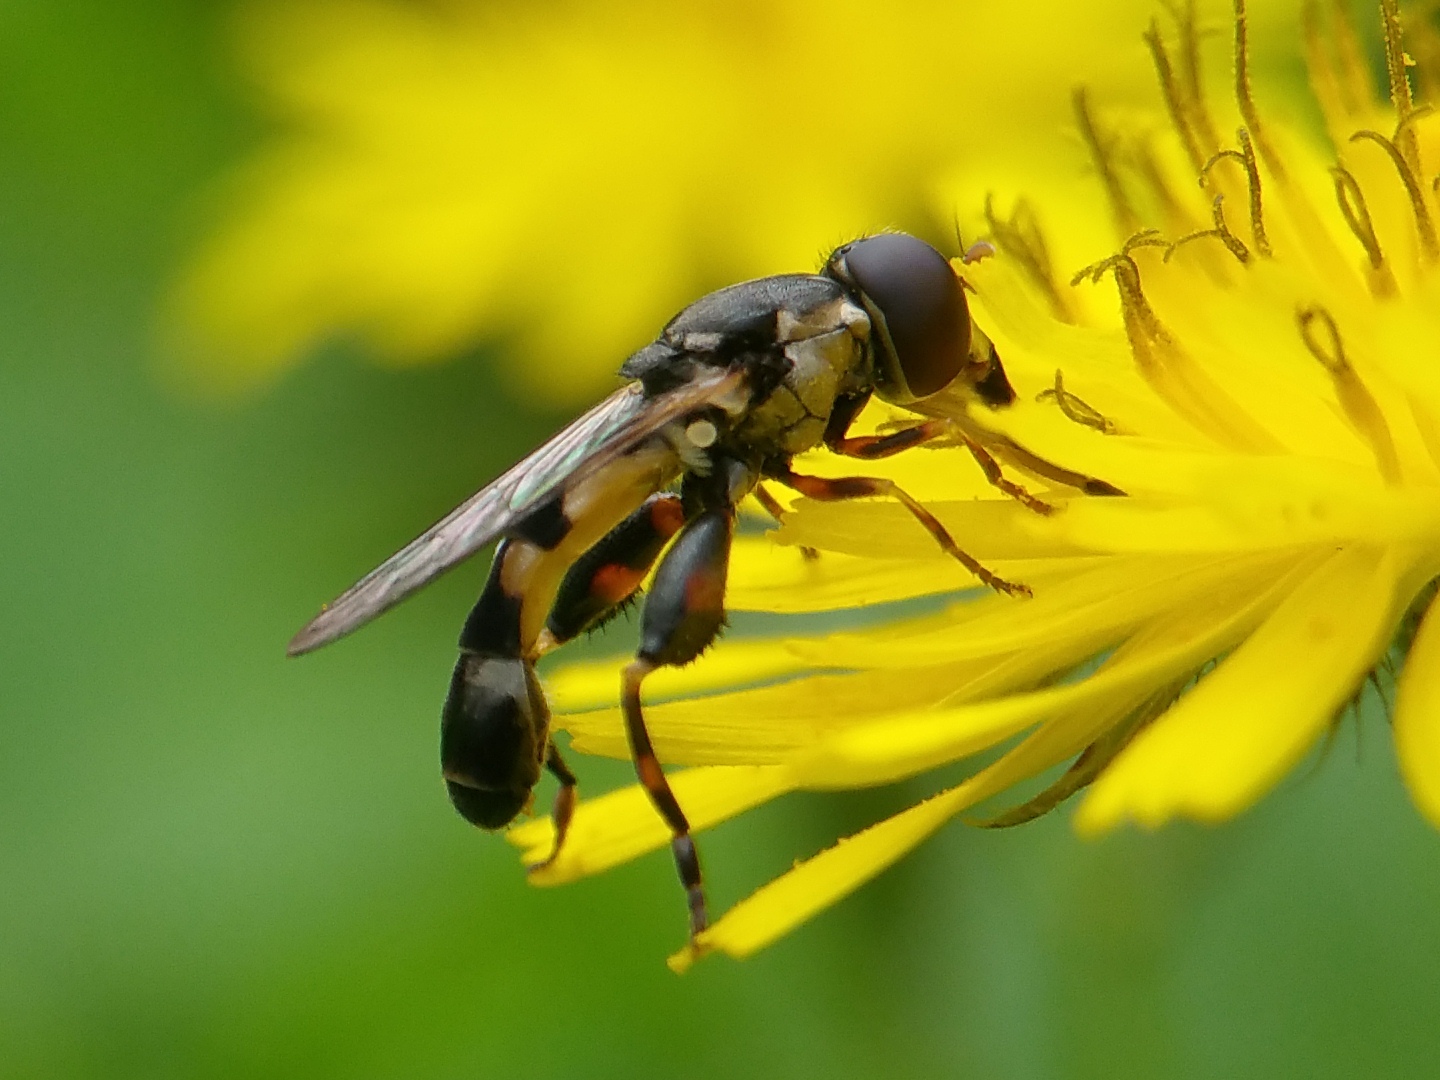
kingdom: Animalia
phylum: Arthropoda
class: Insecta
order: Diptera
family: Syrphidae
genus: Syritta
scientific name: Syritta pipiens
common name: Hover fly
